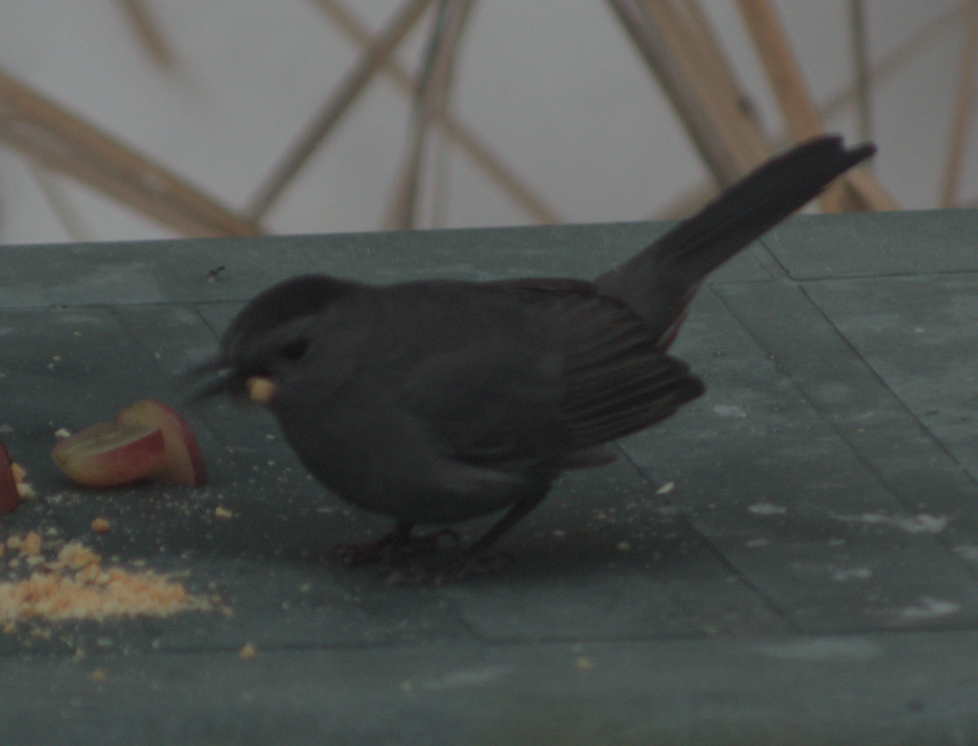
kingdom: Animalia
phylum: Chordata
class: Aves
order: Passeriformes
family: Mimidae
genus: Dumetella
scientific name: Dumetella carolinensis
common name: Gray catbird
